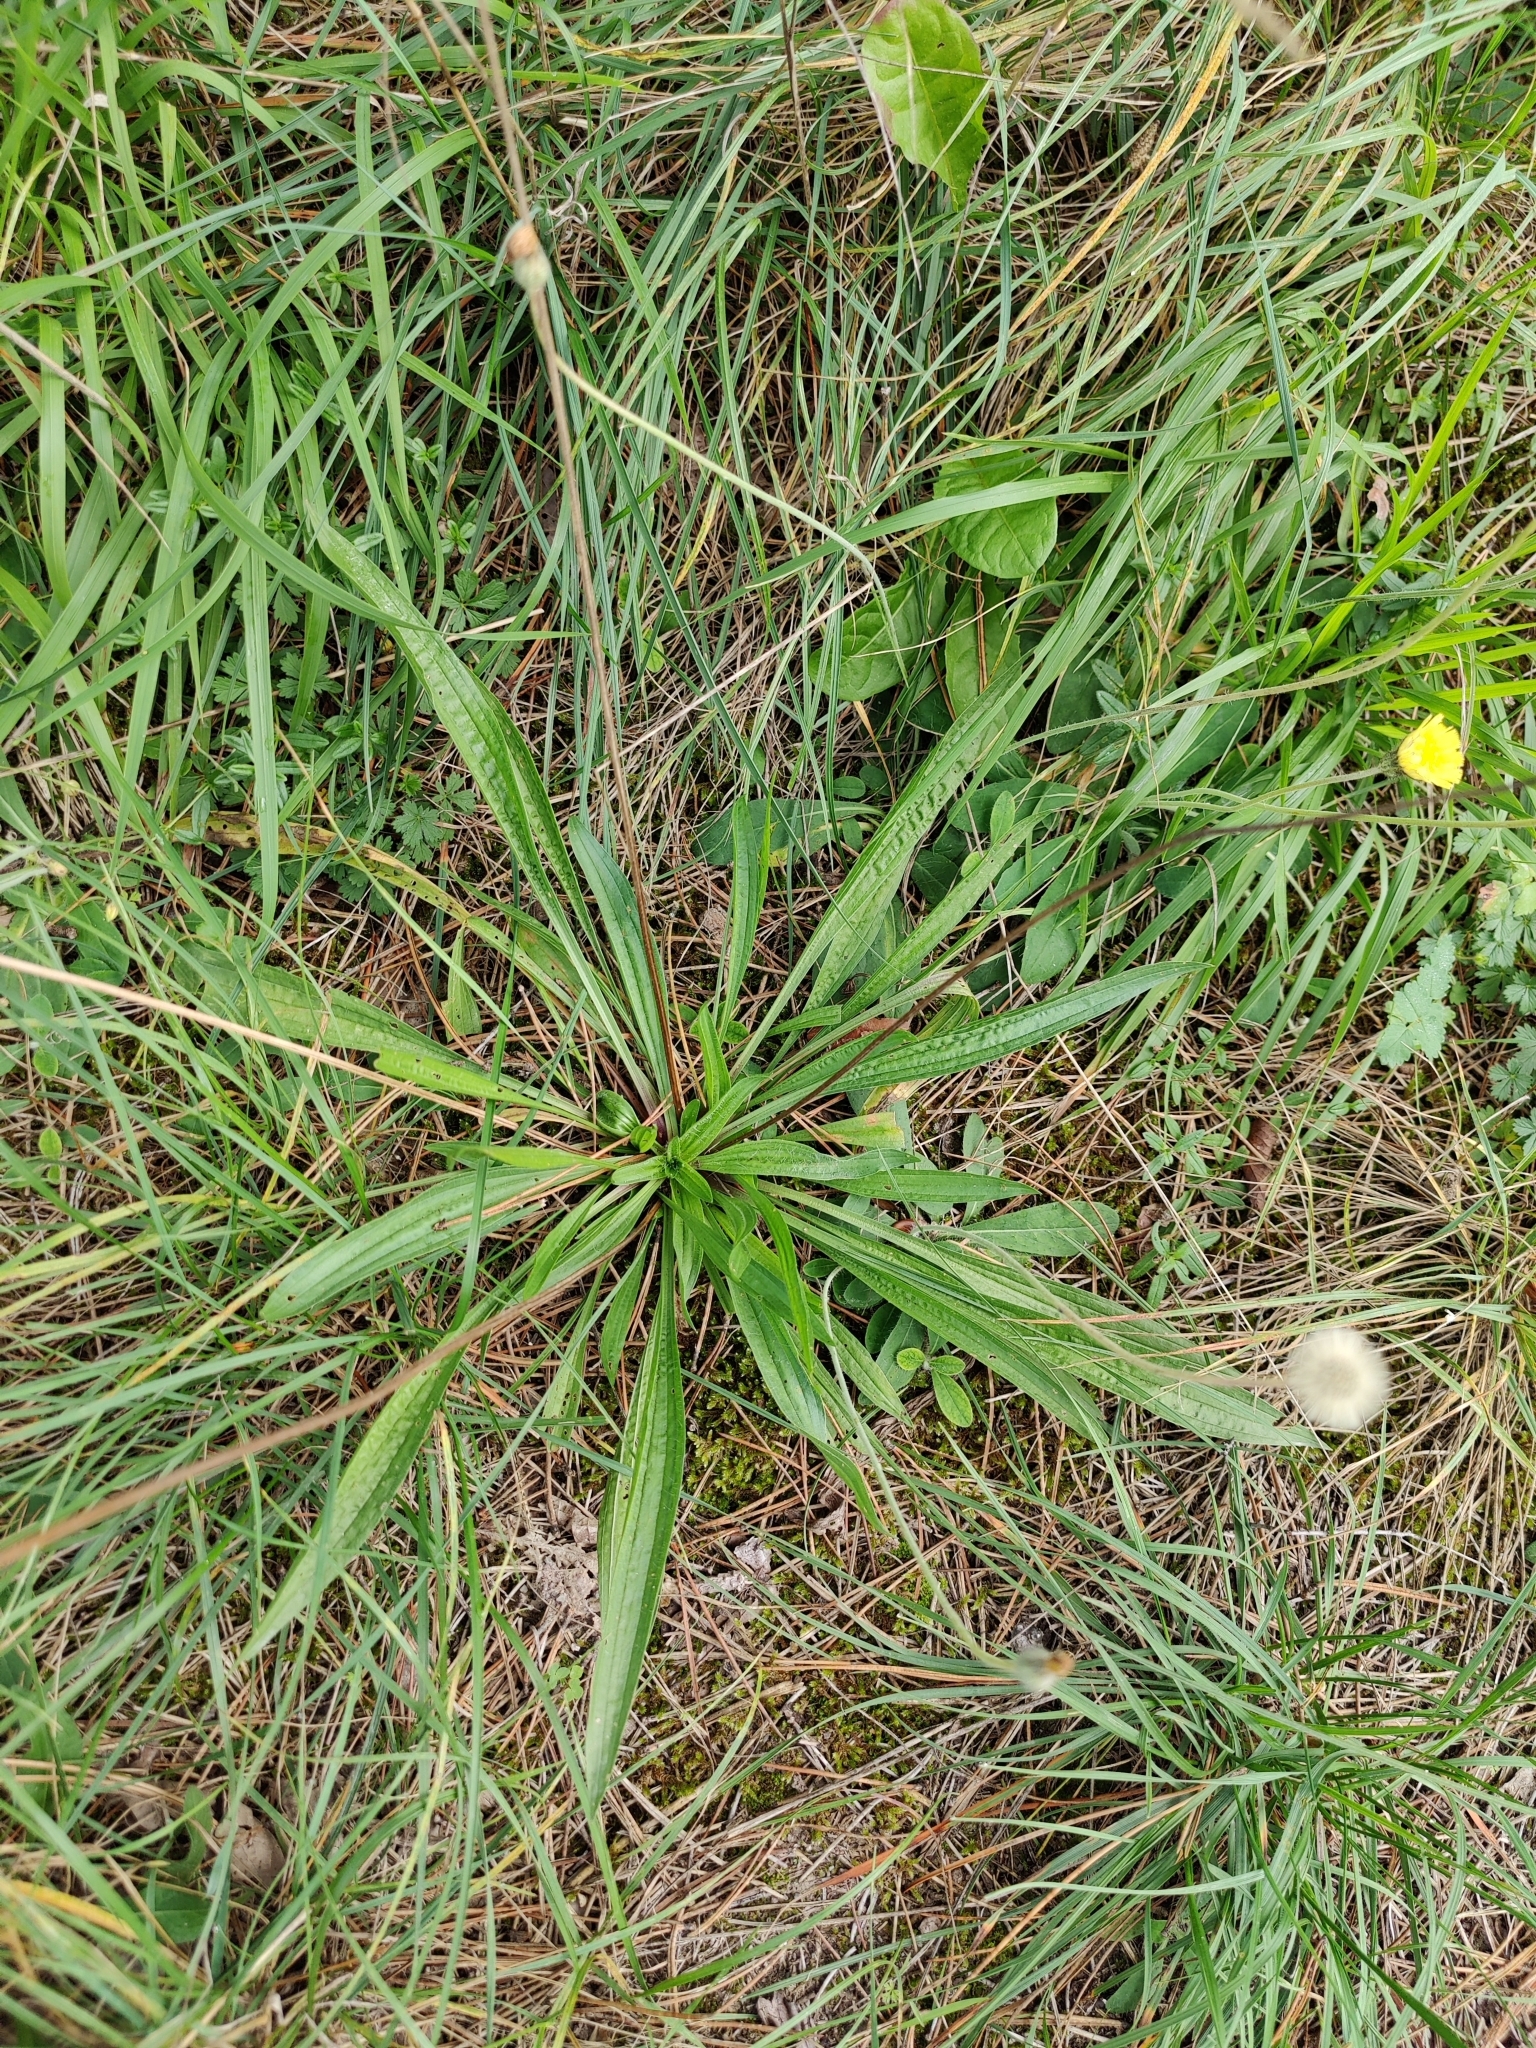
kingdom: Plantae
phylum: Tracheophyta
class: Magnoliopsida
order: Lamiales
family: Plantaginaceae
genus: Plantago
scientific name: Plantago lanceolata
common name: Ribwort plantain
